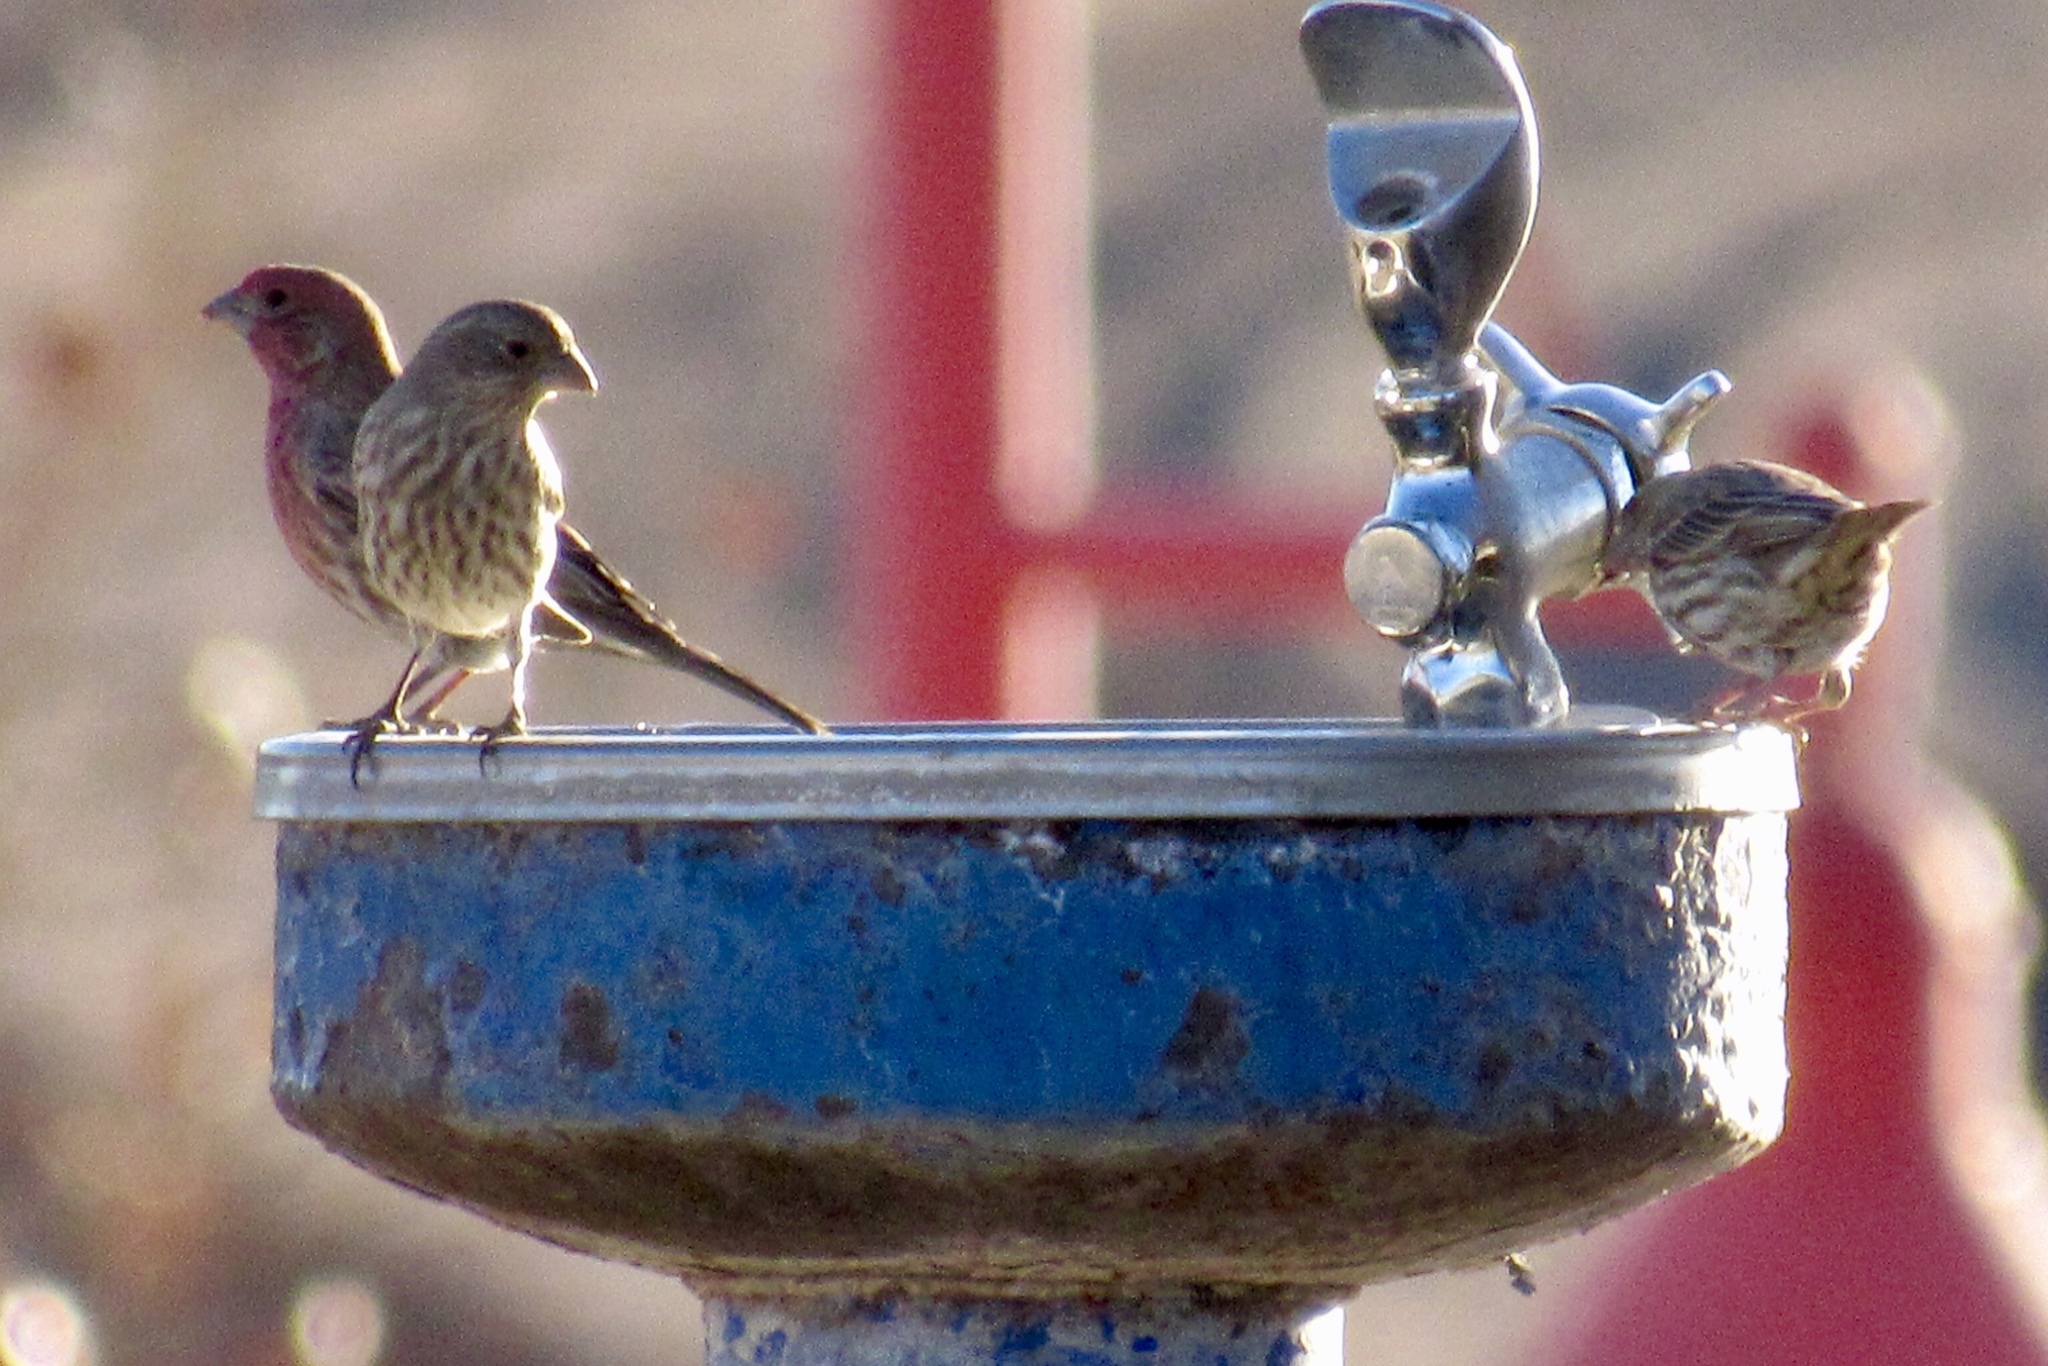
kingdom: Animalia
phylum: Chordata
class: Aves
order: Passeriformes
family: Fringillidae
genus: Haemorhous
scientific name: Haemorhous mexicanus
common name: House finch
